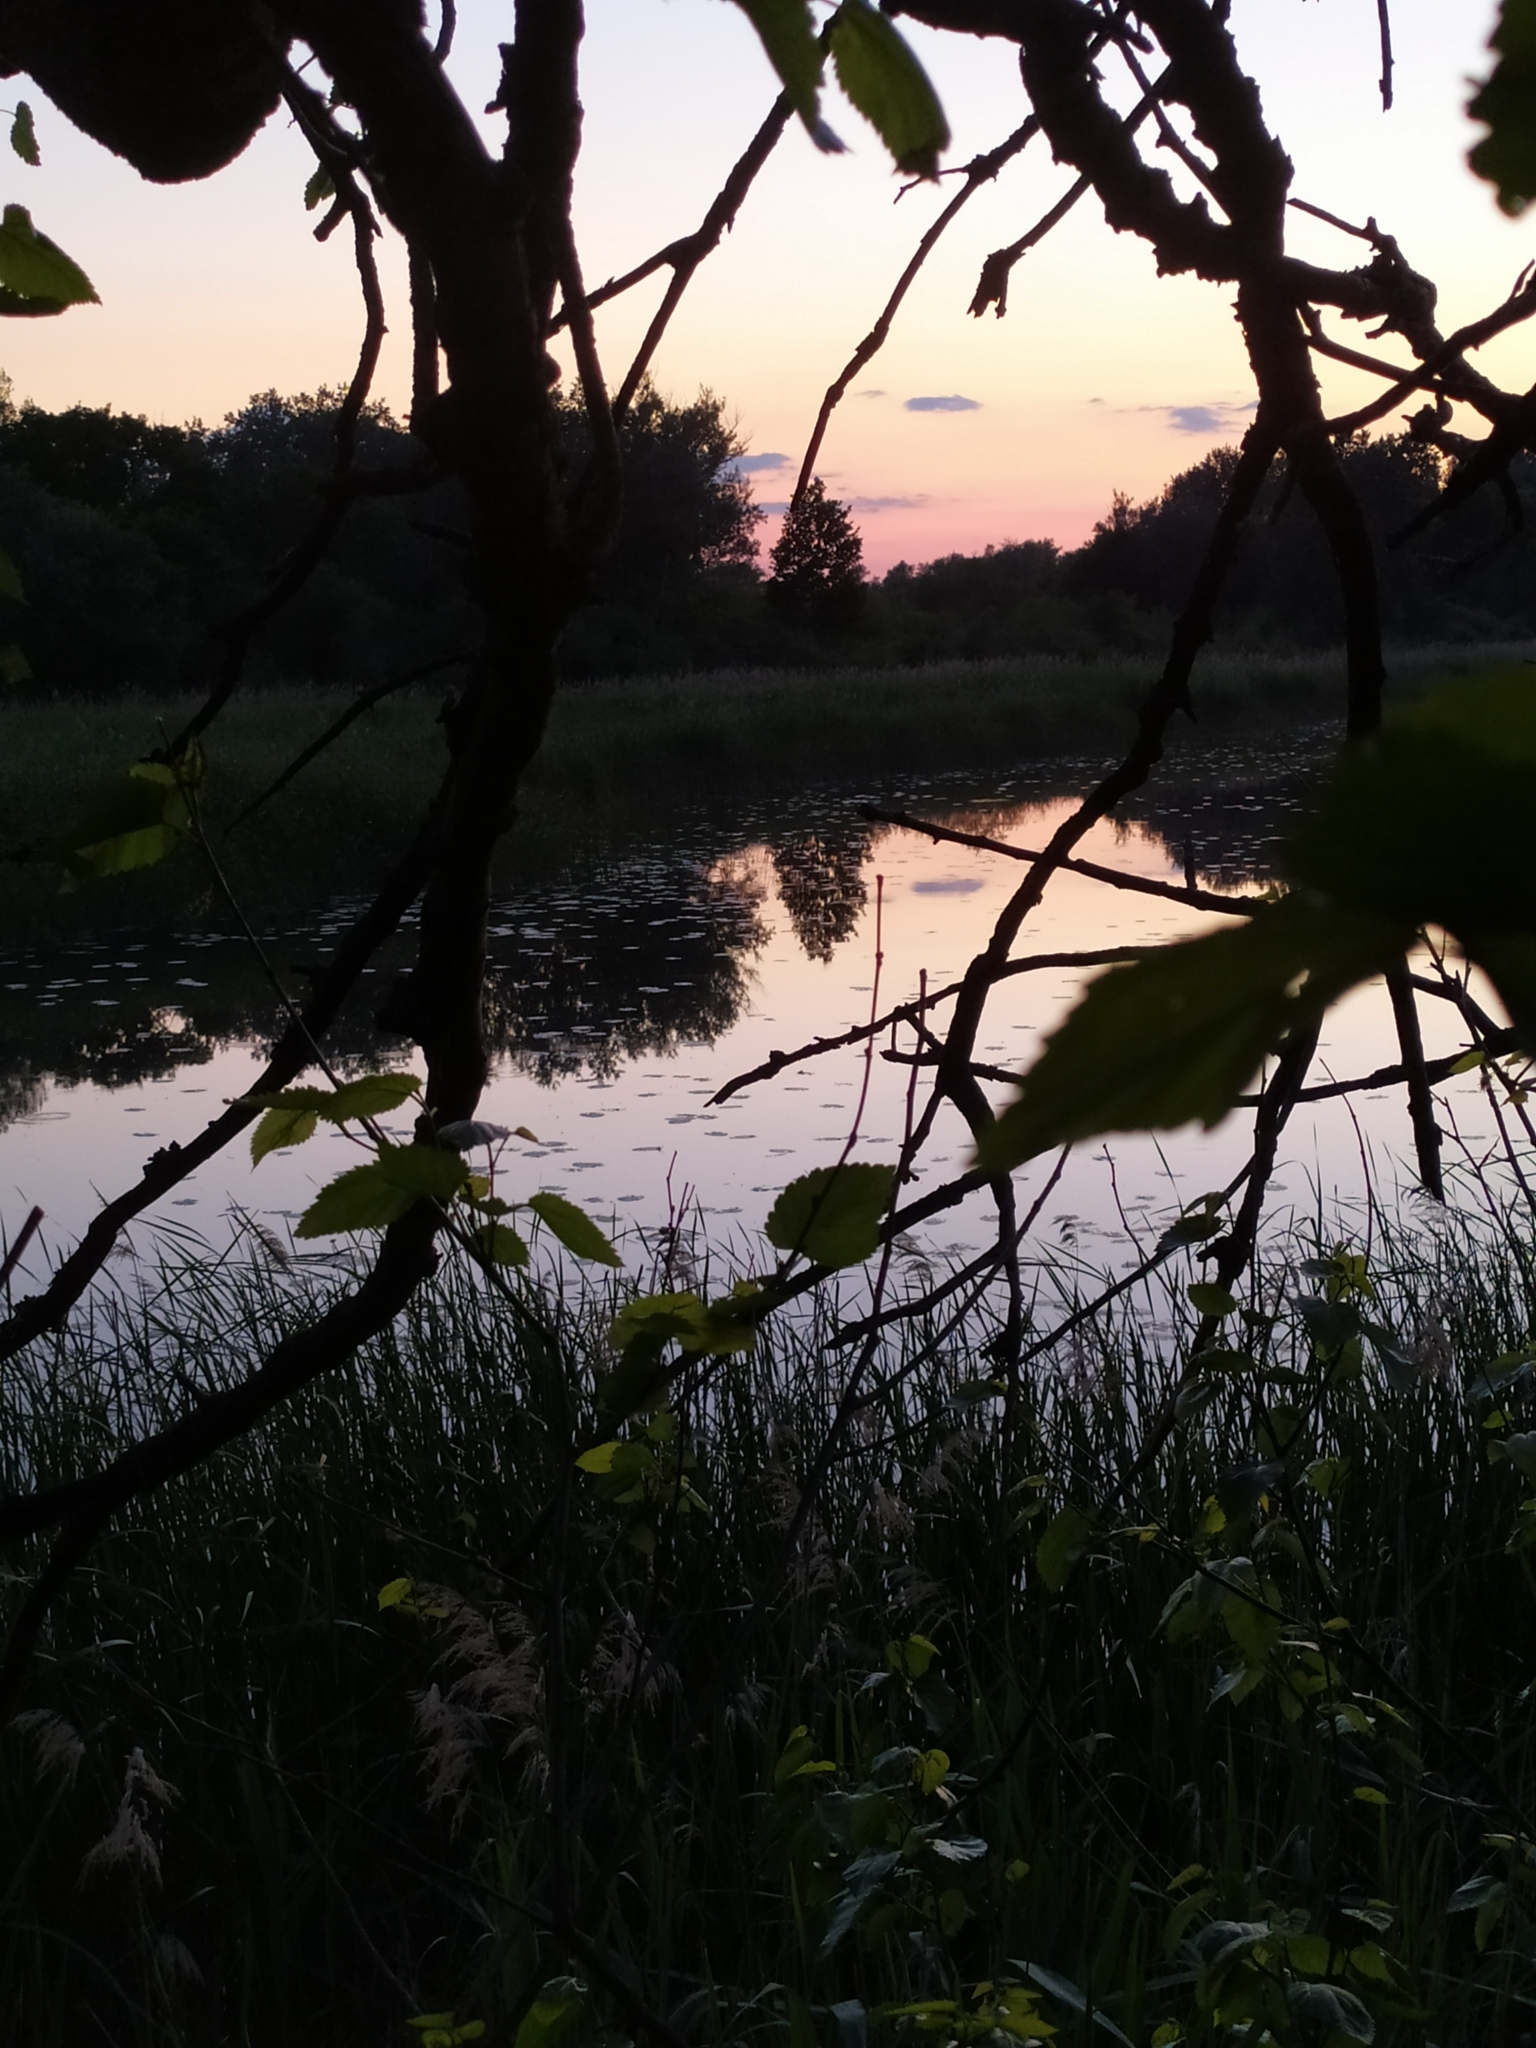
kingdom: Animalia
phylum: Chordata
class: Aves
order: Pelecaniformes
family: Ardeidae
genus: Ixobrychus
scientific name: Ixobrychus minutus
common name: Little bittern
